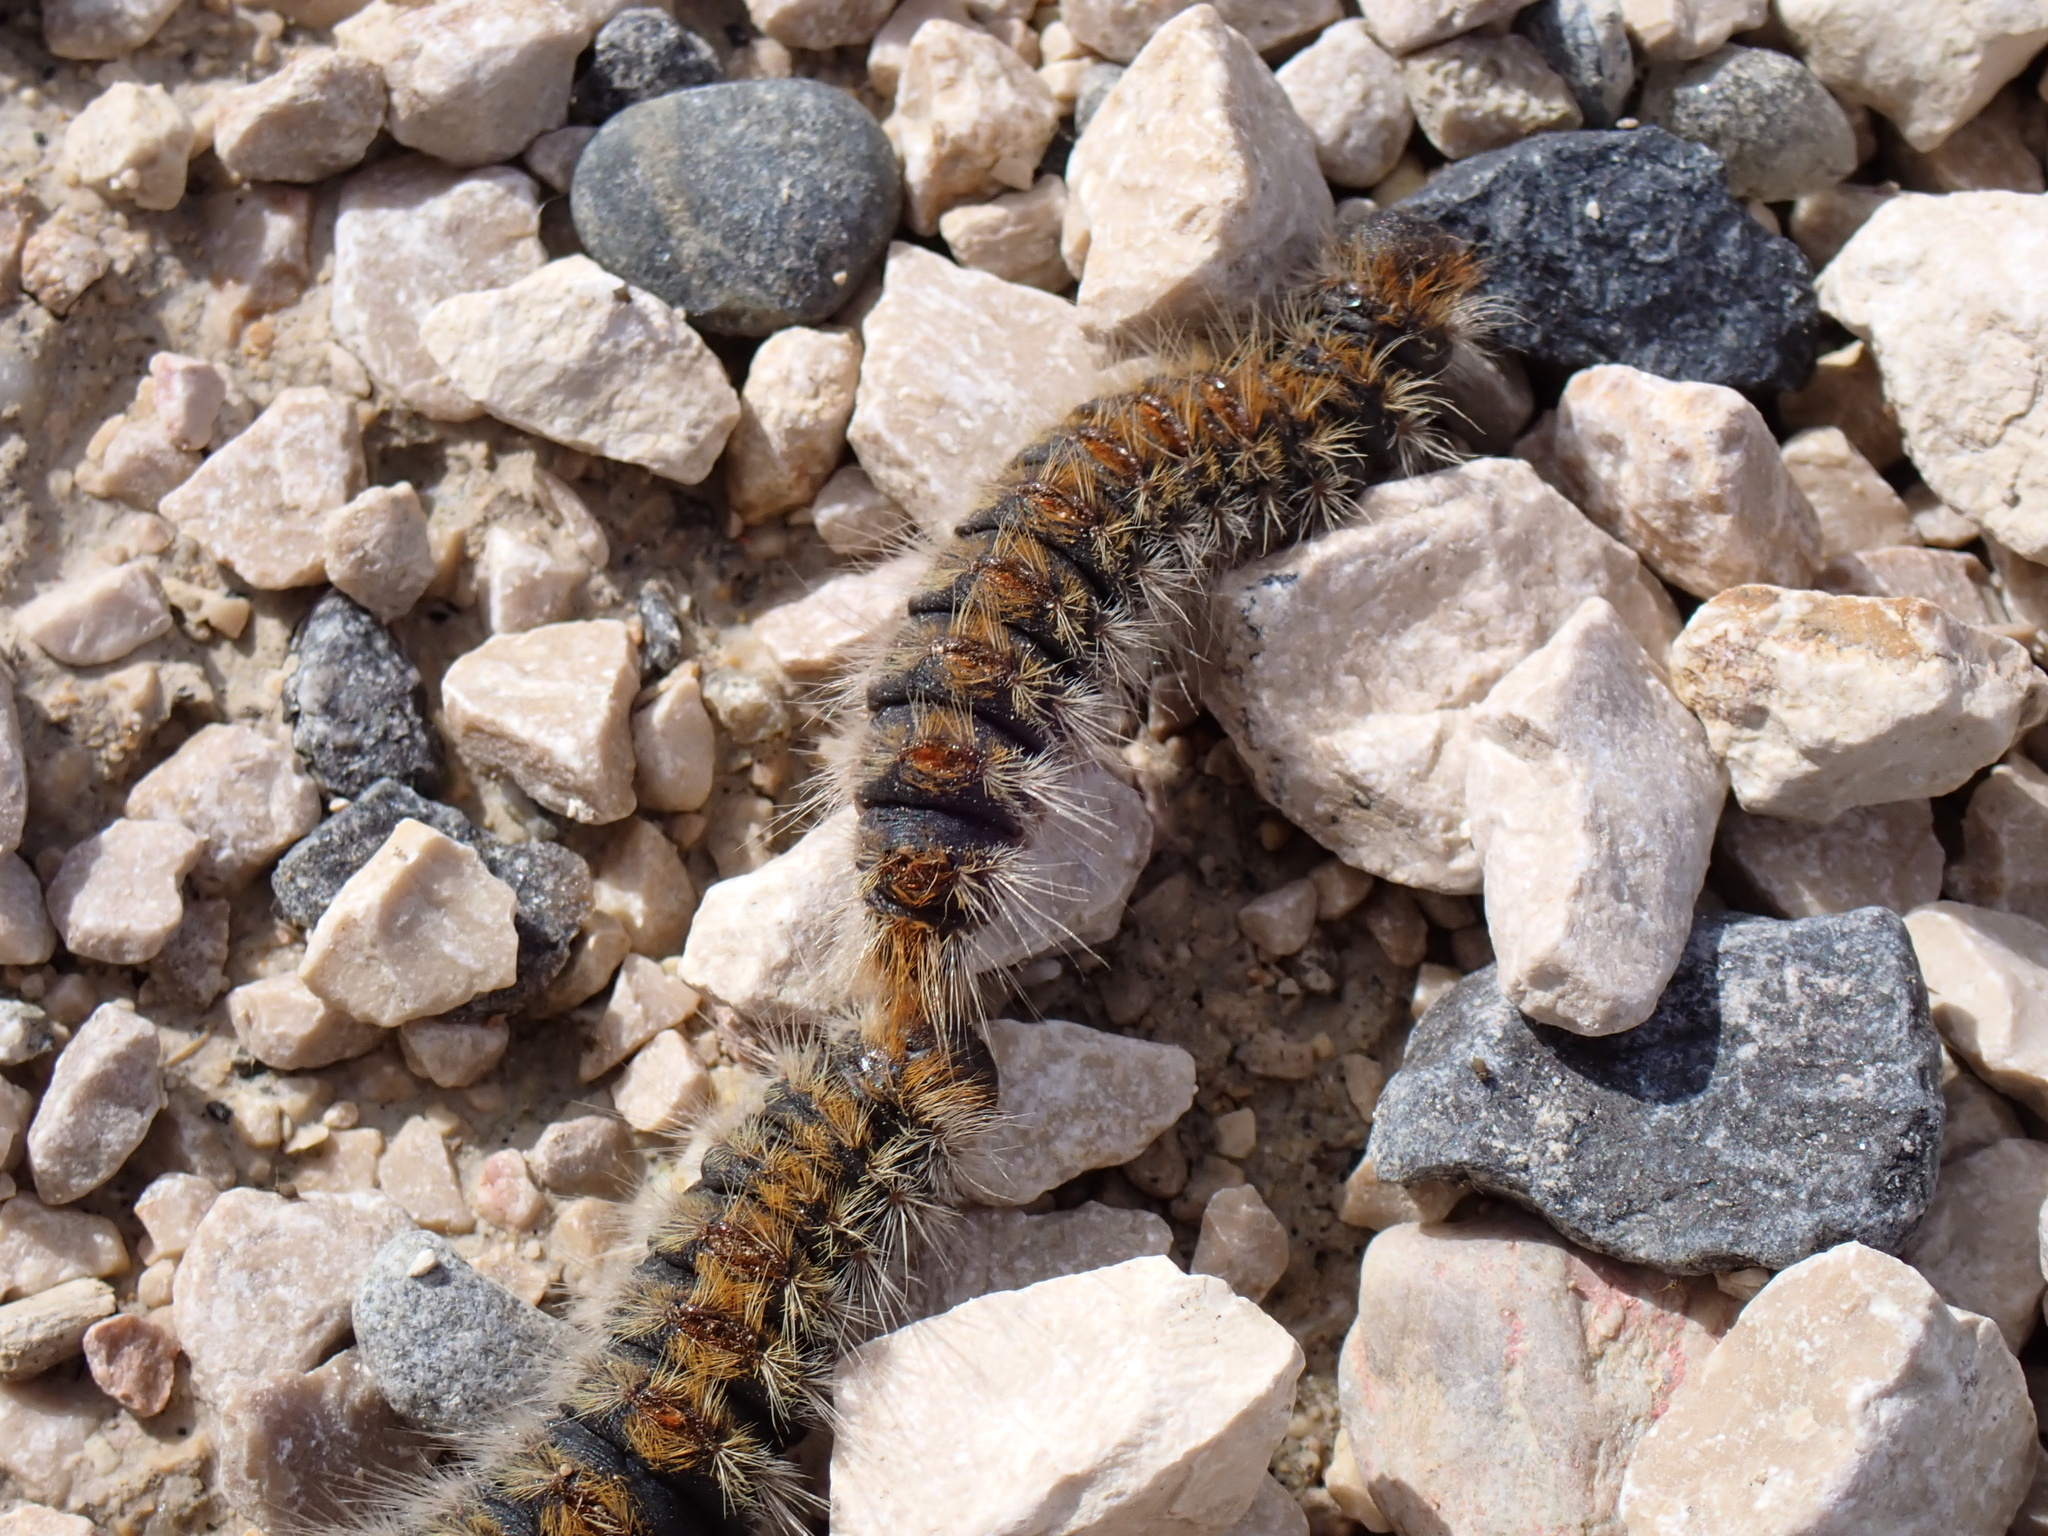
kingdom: Animalia
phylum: Arthropoda
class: Insecta
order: Lepidoptera
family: Notodontidae
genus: Thaumetopoea
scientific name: Thaumetopoea pityocampa
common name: Pine processionary
